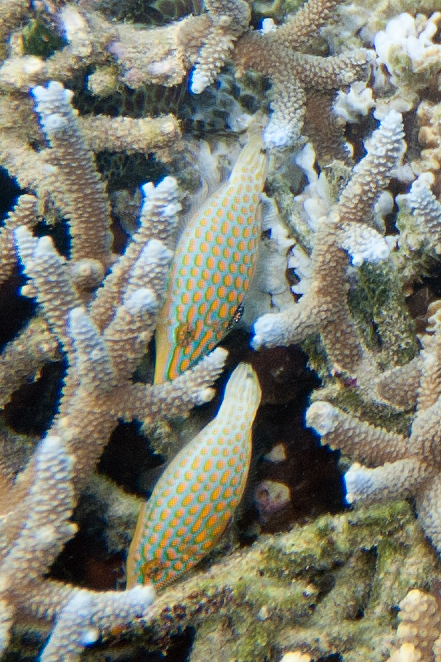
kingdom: Animalia
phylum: Chordata
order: Tetraodontiformes
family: Monacanthidae
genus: Oxymonacanthus
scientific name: Oxymonacanthus longirostris
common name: Beaked leatherjacket
